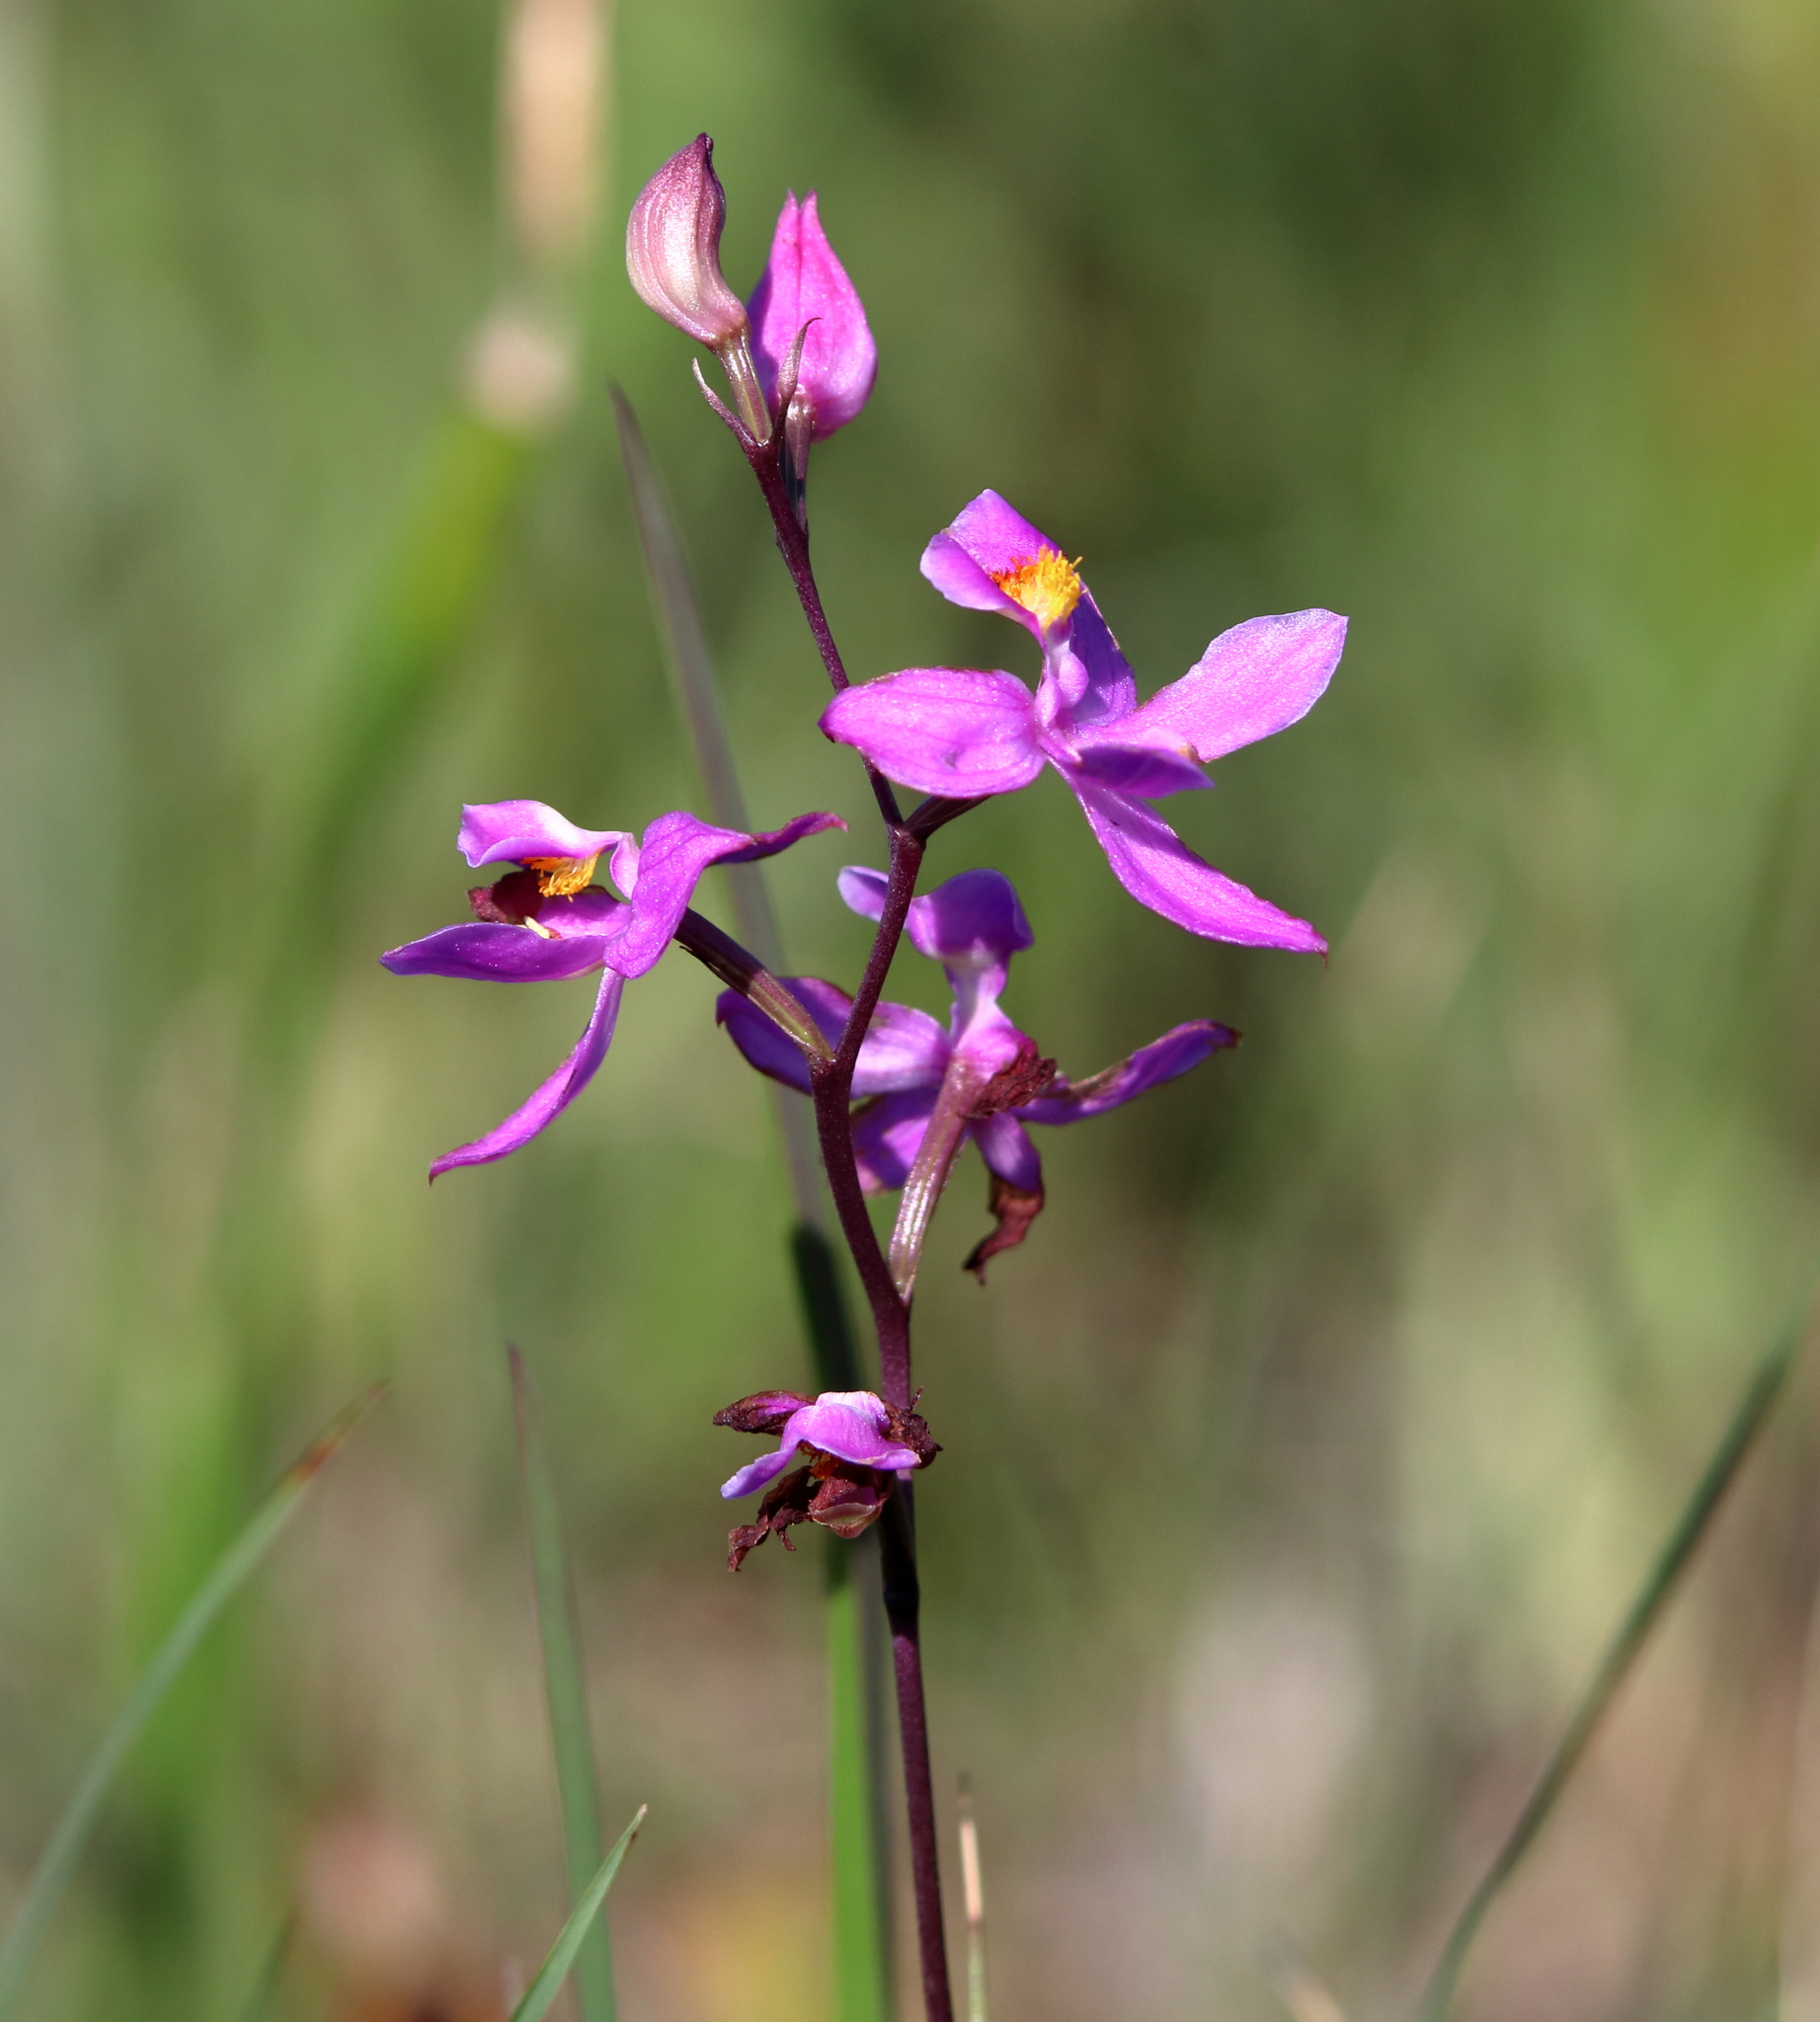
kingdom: Plantae
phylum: Tracheophyta
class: Liliopsida
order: Asparagales
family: Orchidaceae
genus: Calopogon
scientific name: Calopogon multiflorus
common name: Many-flowered grass-pink orchid
